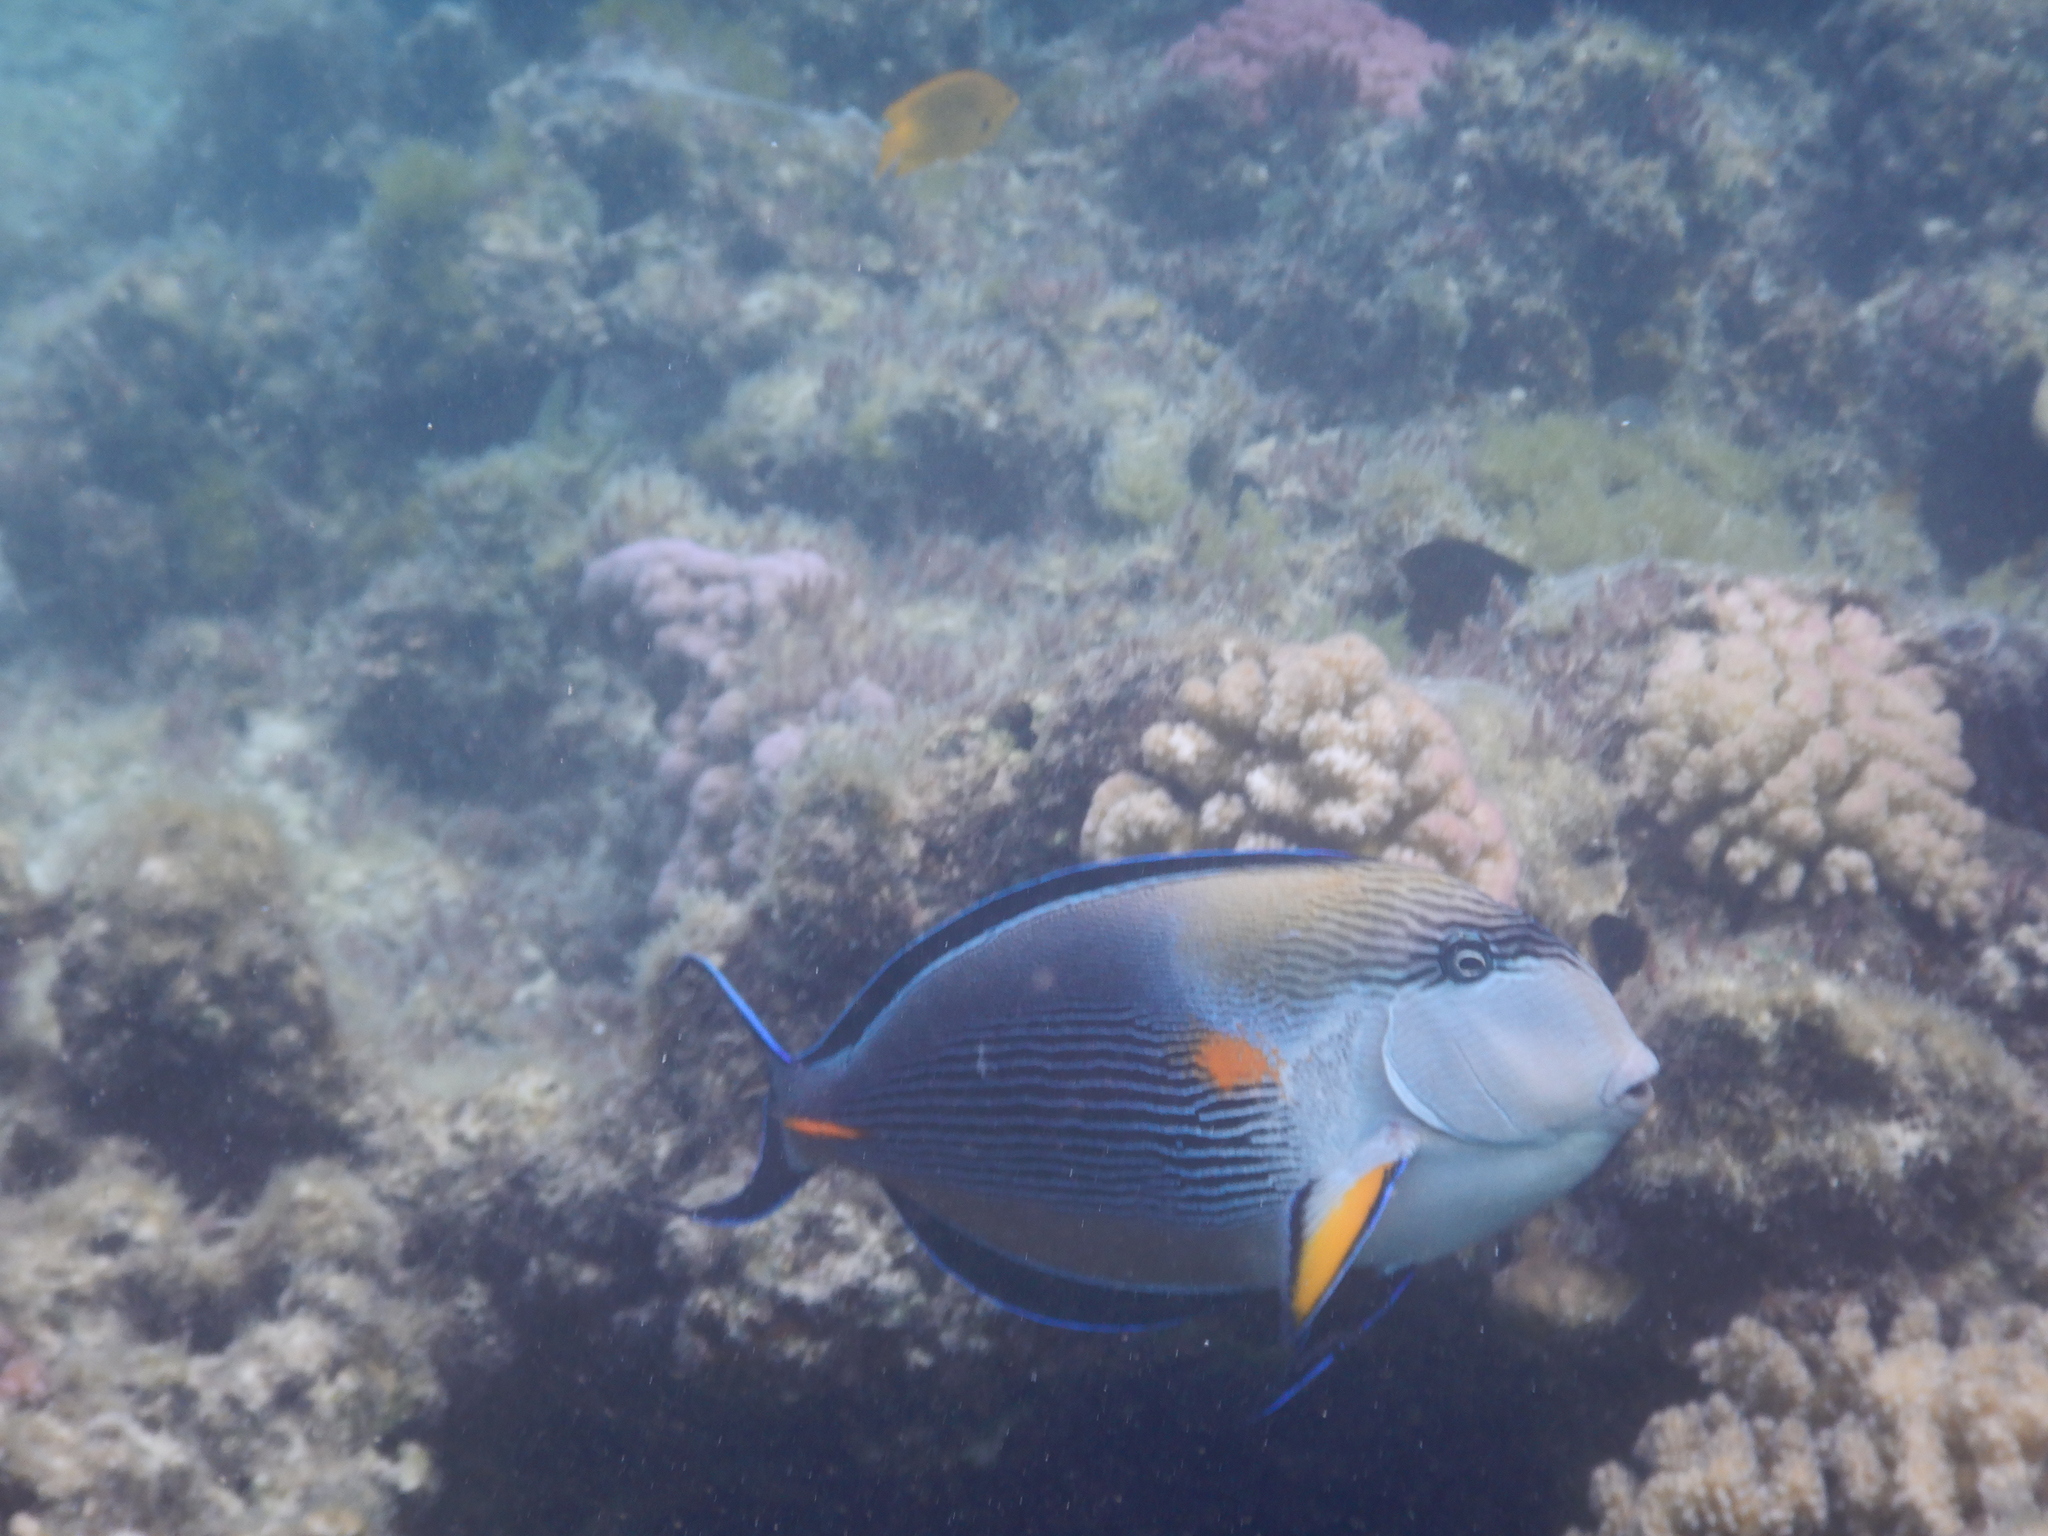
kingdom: Animalia
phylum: Chordata
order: Perciformes
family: Acanthuridae
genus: Acanthurus
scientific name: Acanthurus sohal
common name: Red sea surgeonfish
